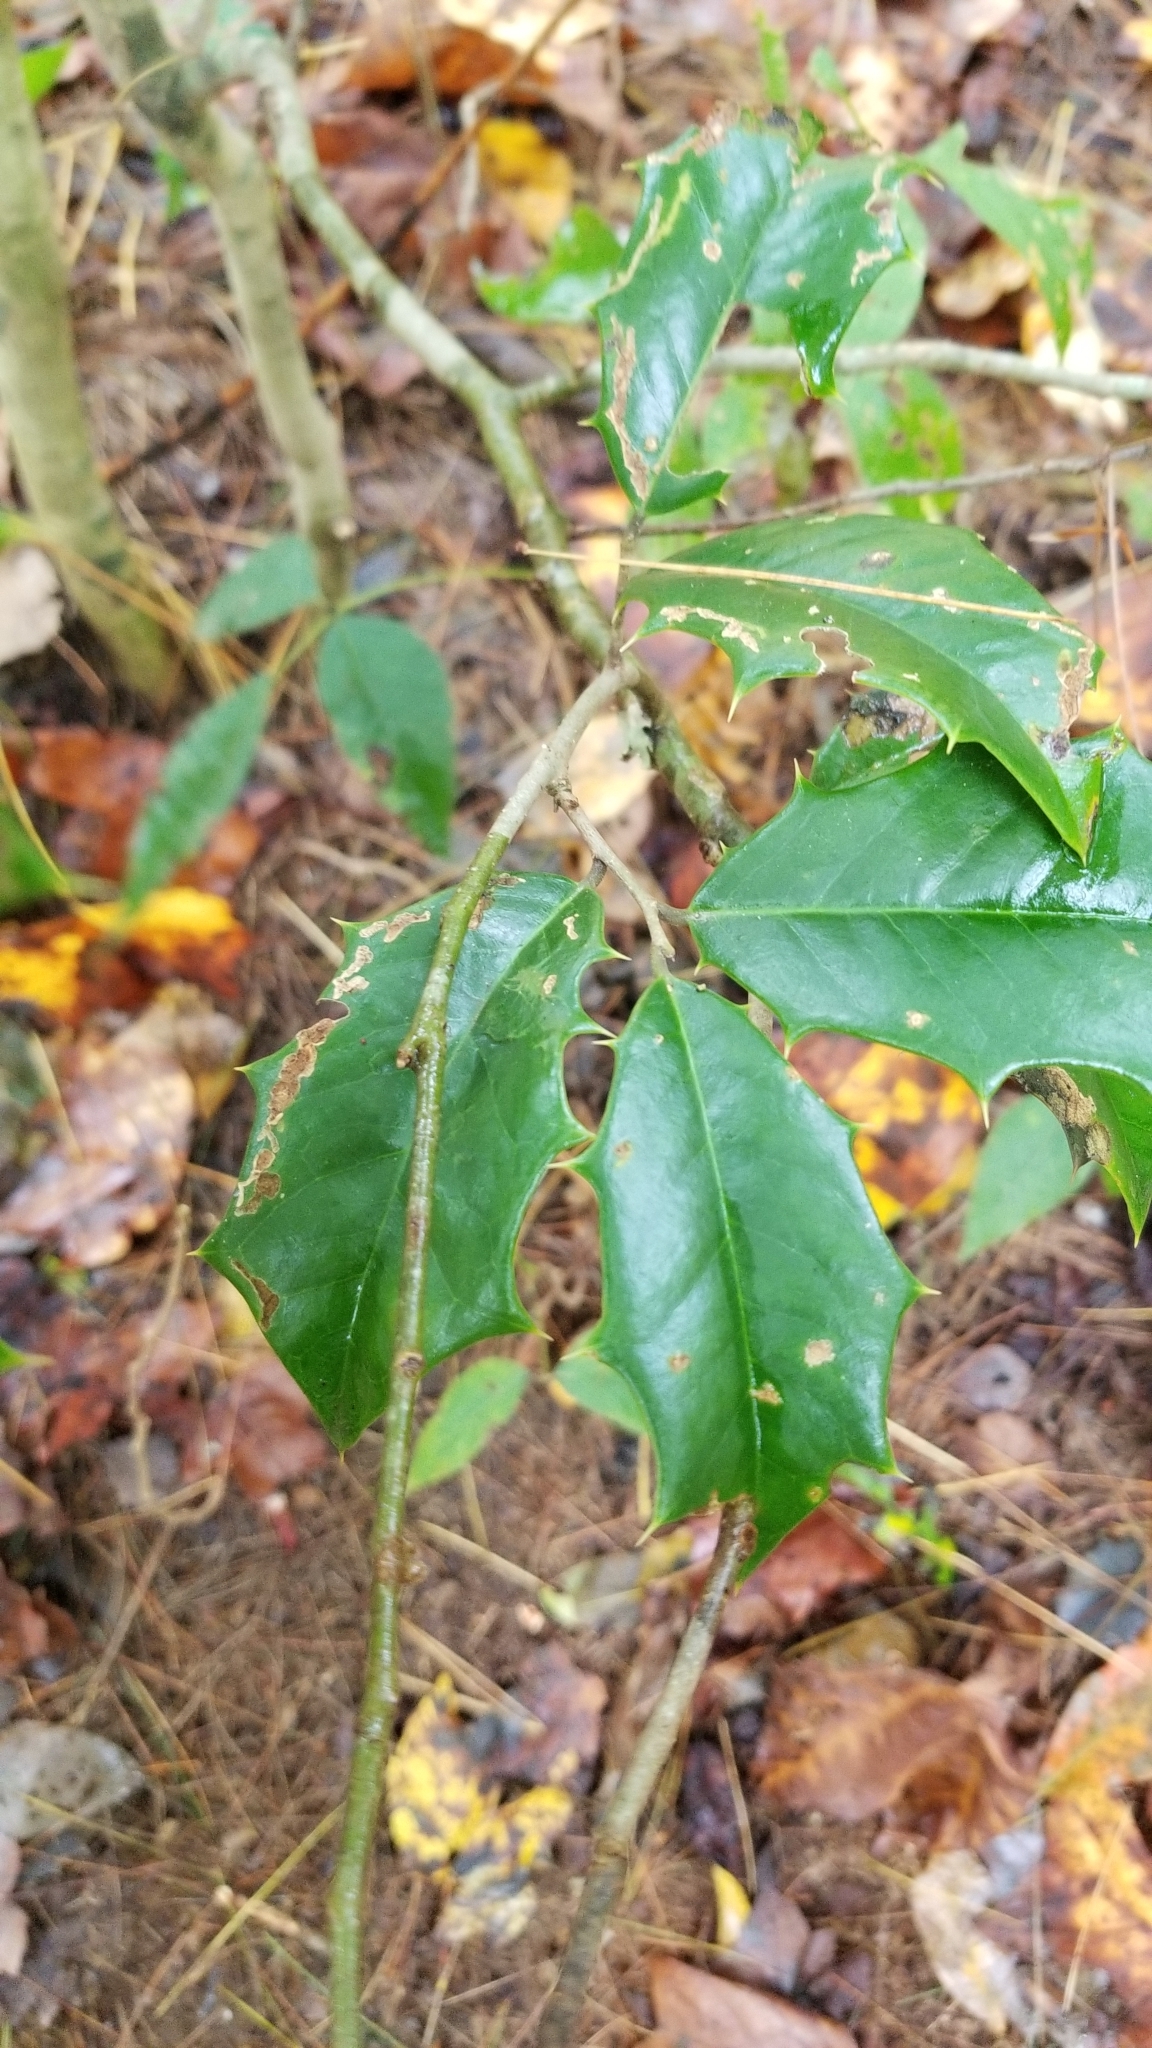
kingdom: Plantae
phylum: Tracheophyta
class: Magnoliopsida
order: Aquifoliales
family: Aquifoliaceae
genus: Ilex
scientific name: Ilex opaca
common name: American holly
